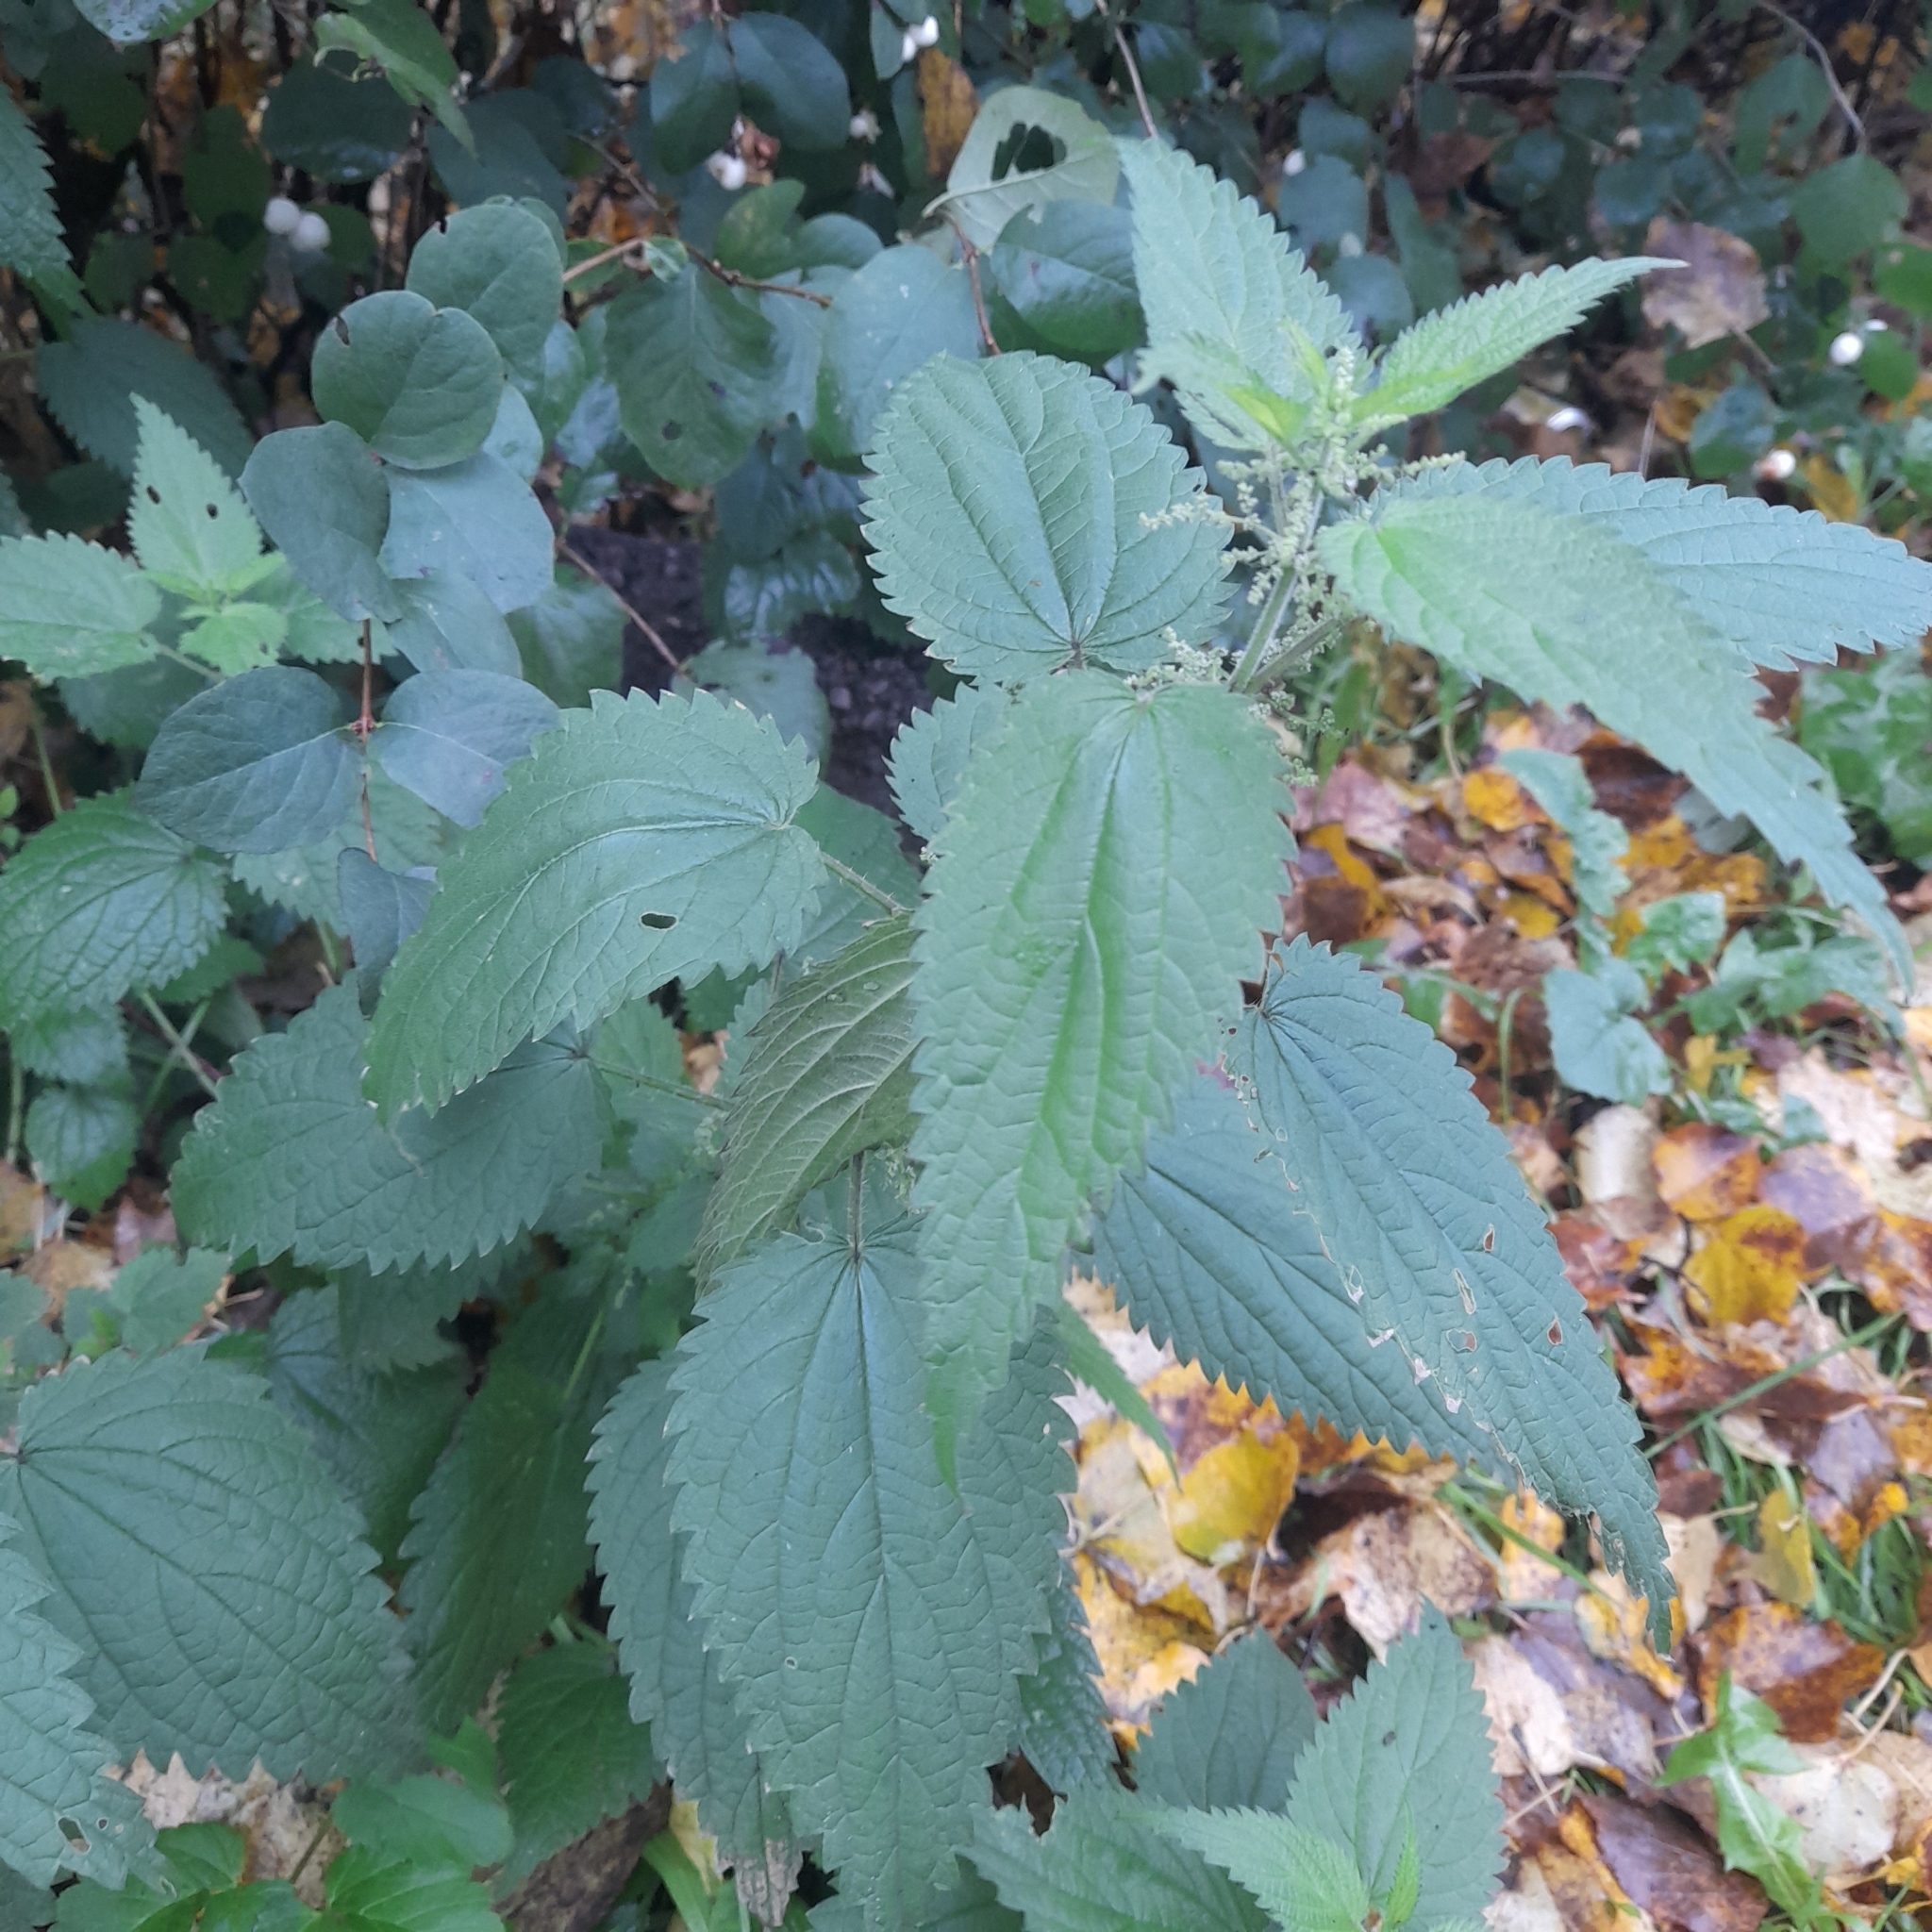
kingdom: Plantae
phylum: Tracheophyta
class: Magnoliopsida
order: Rosales
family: Urticaceae
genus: Urtica
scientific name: Urtica dioica
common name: Common nettle
